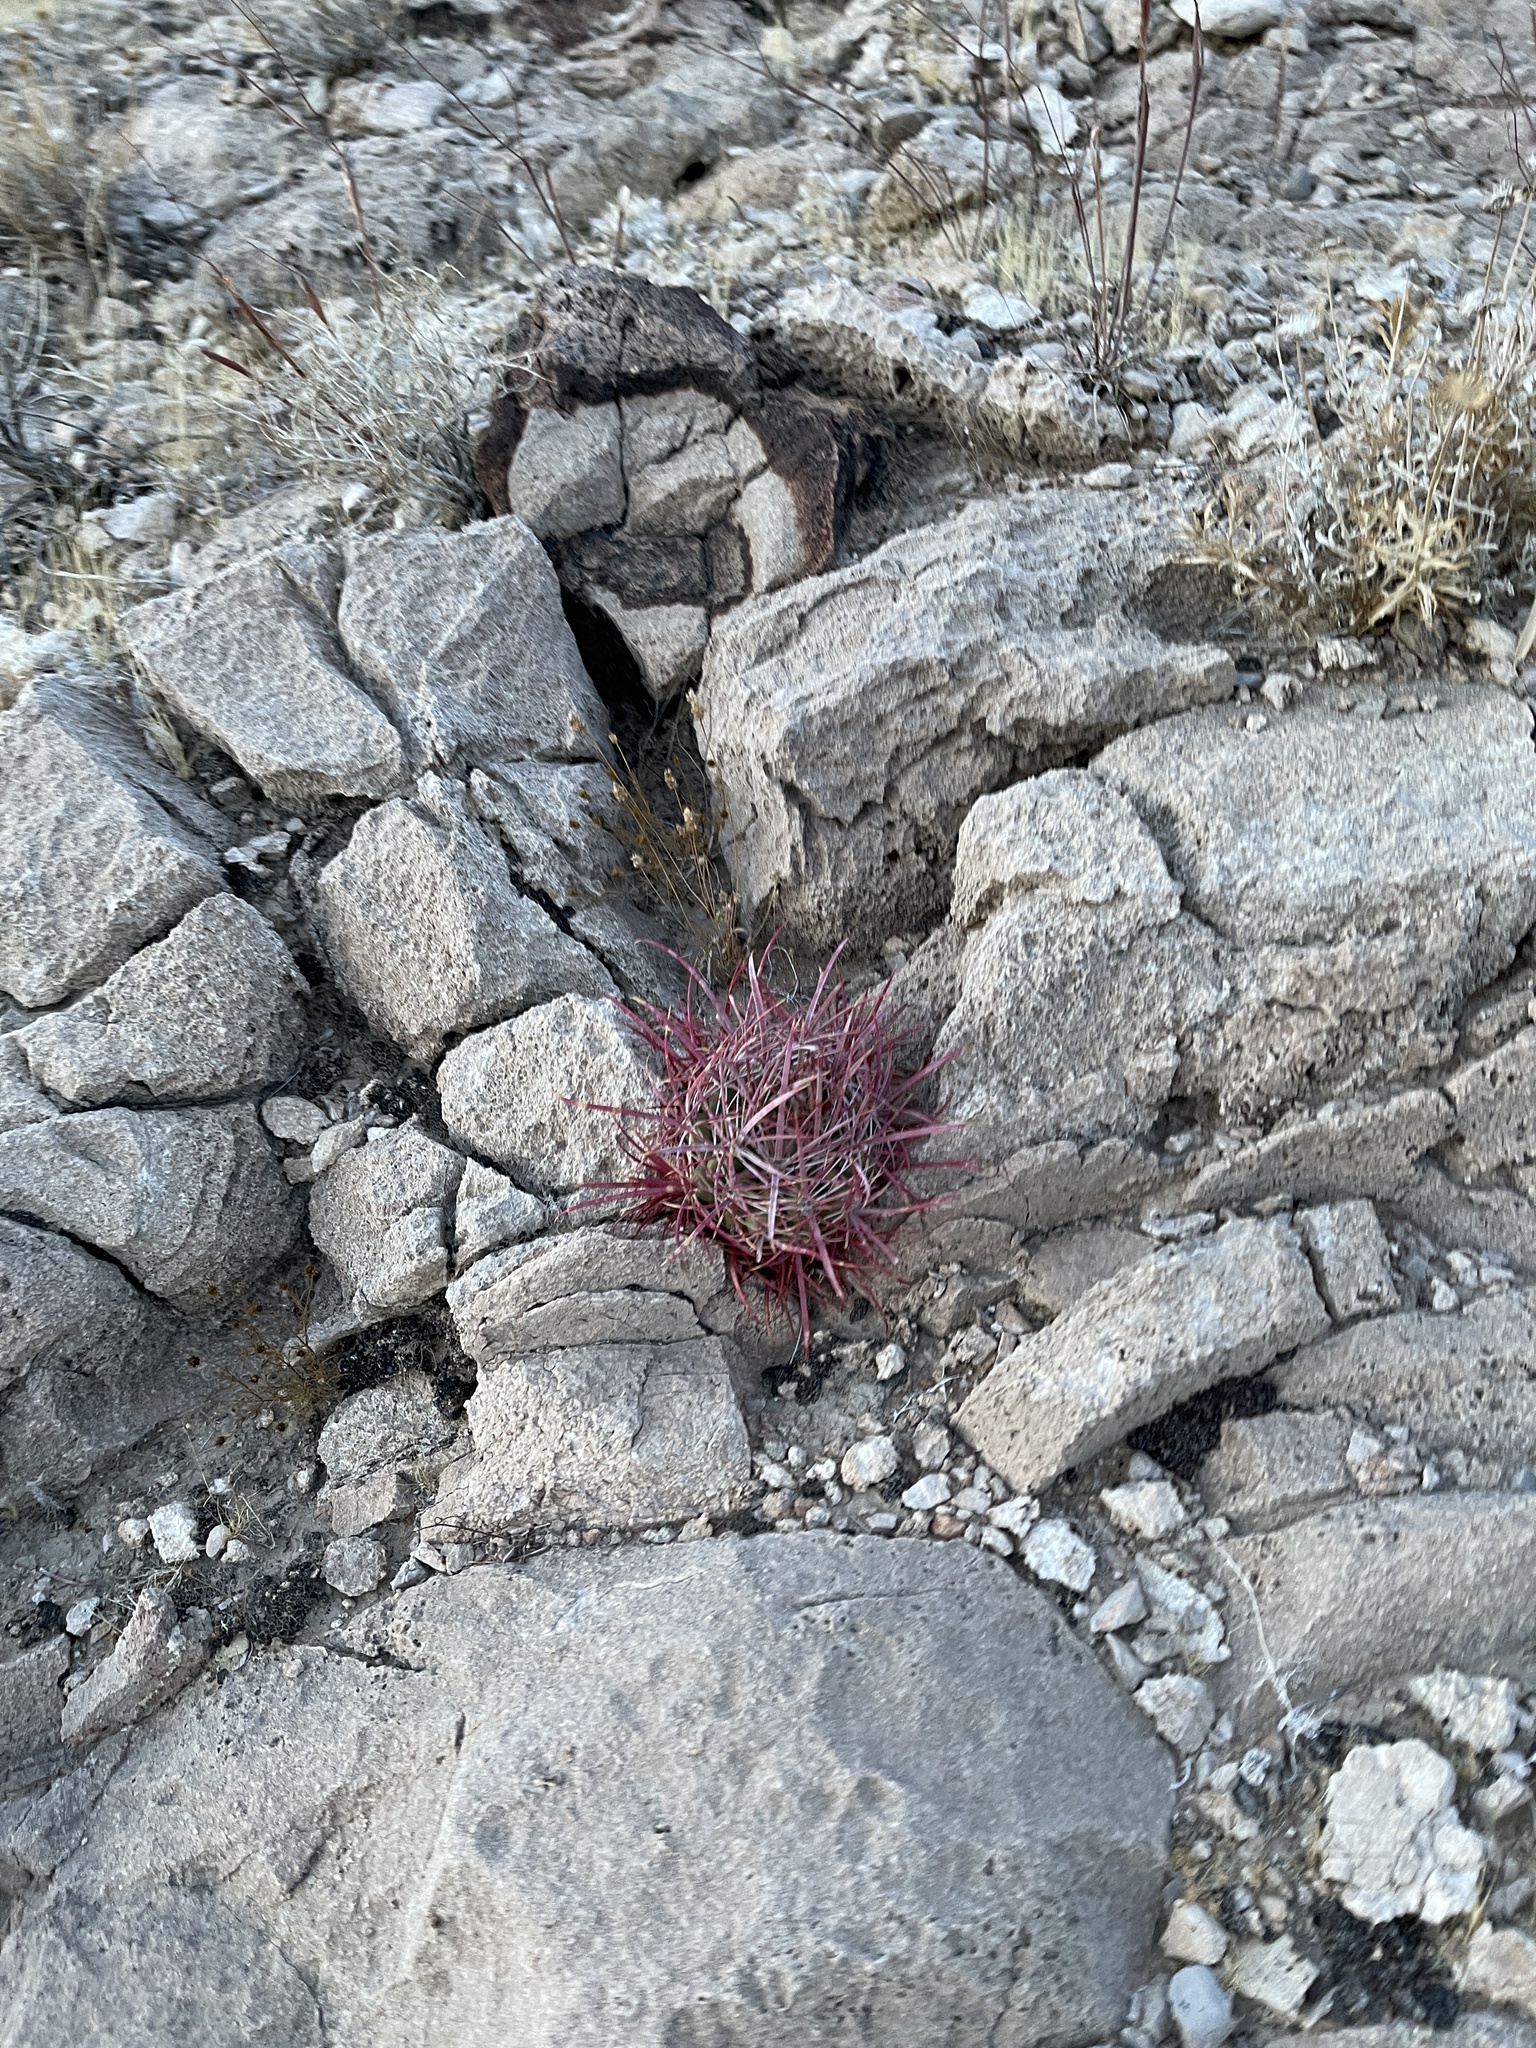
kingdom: Plantae
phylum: Tracheophyta
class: Magnoliopsida
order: Caryophyllales
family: Cactaceae
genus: Ferocactus
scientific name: Ferocactus cylindraceus
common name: California barrel cactus
